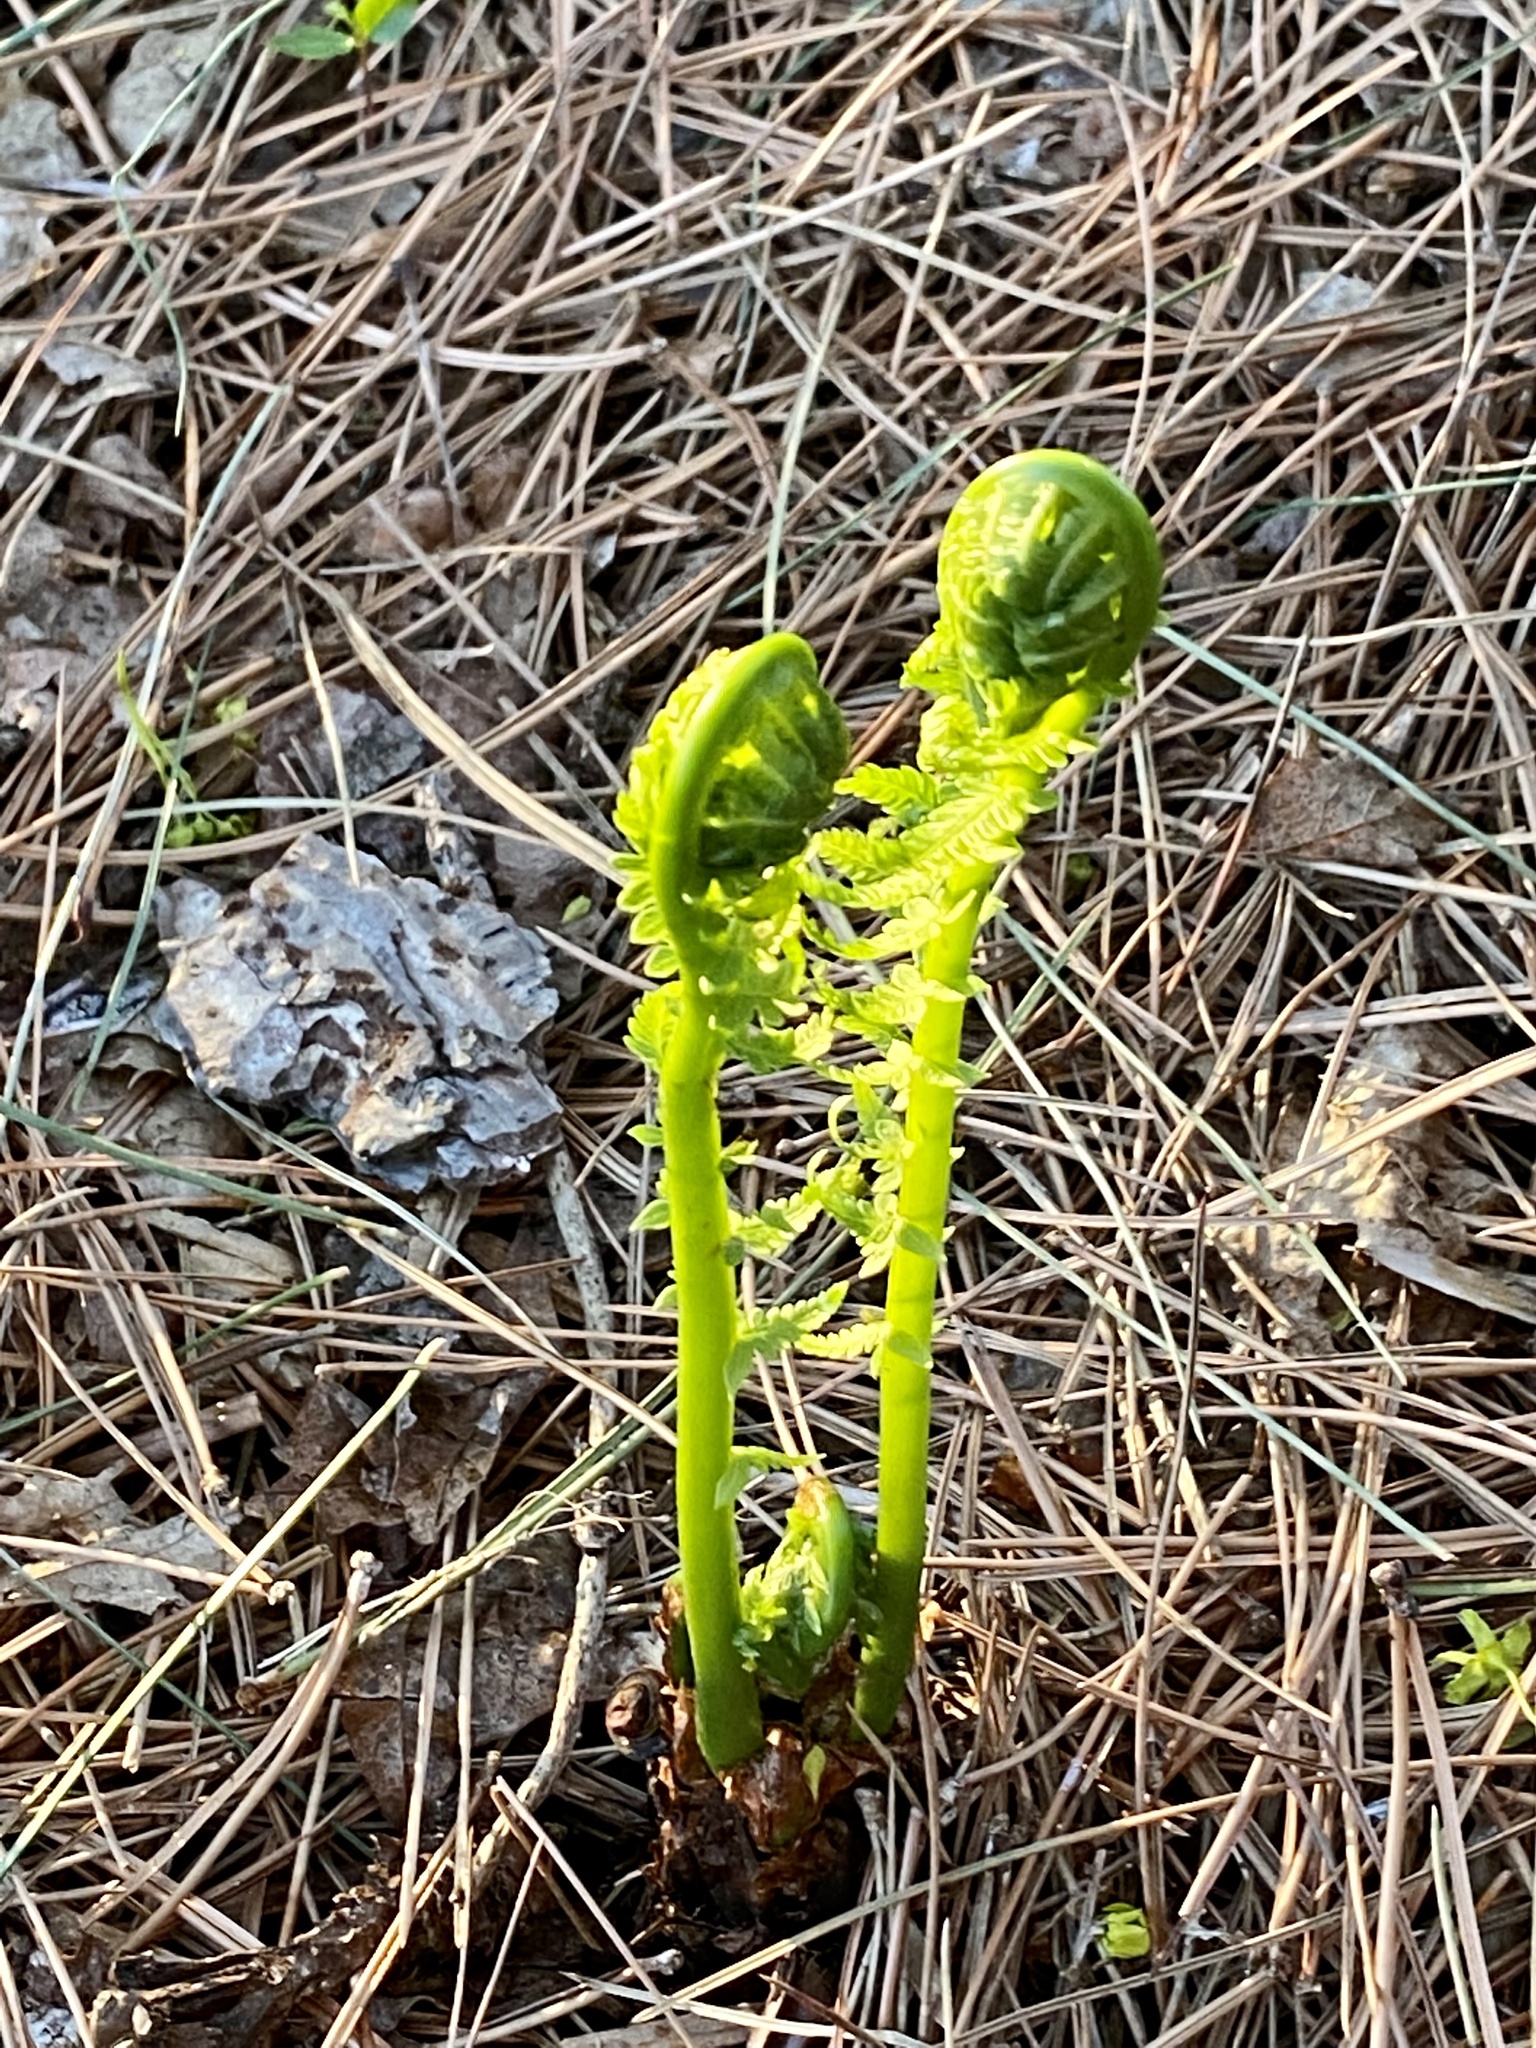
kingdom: Plantae
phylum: Tracheophyta
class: Polypodiopsida
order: Polypodiales
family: Onocleaceae
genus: Matteuccia
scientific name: Matteuccia struthiopteris
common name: Ostrich fern
